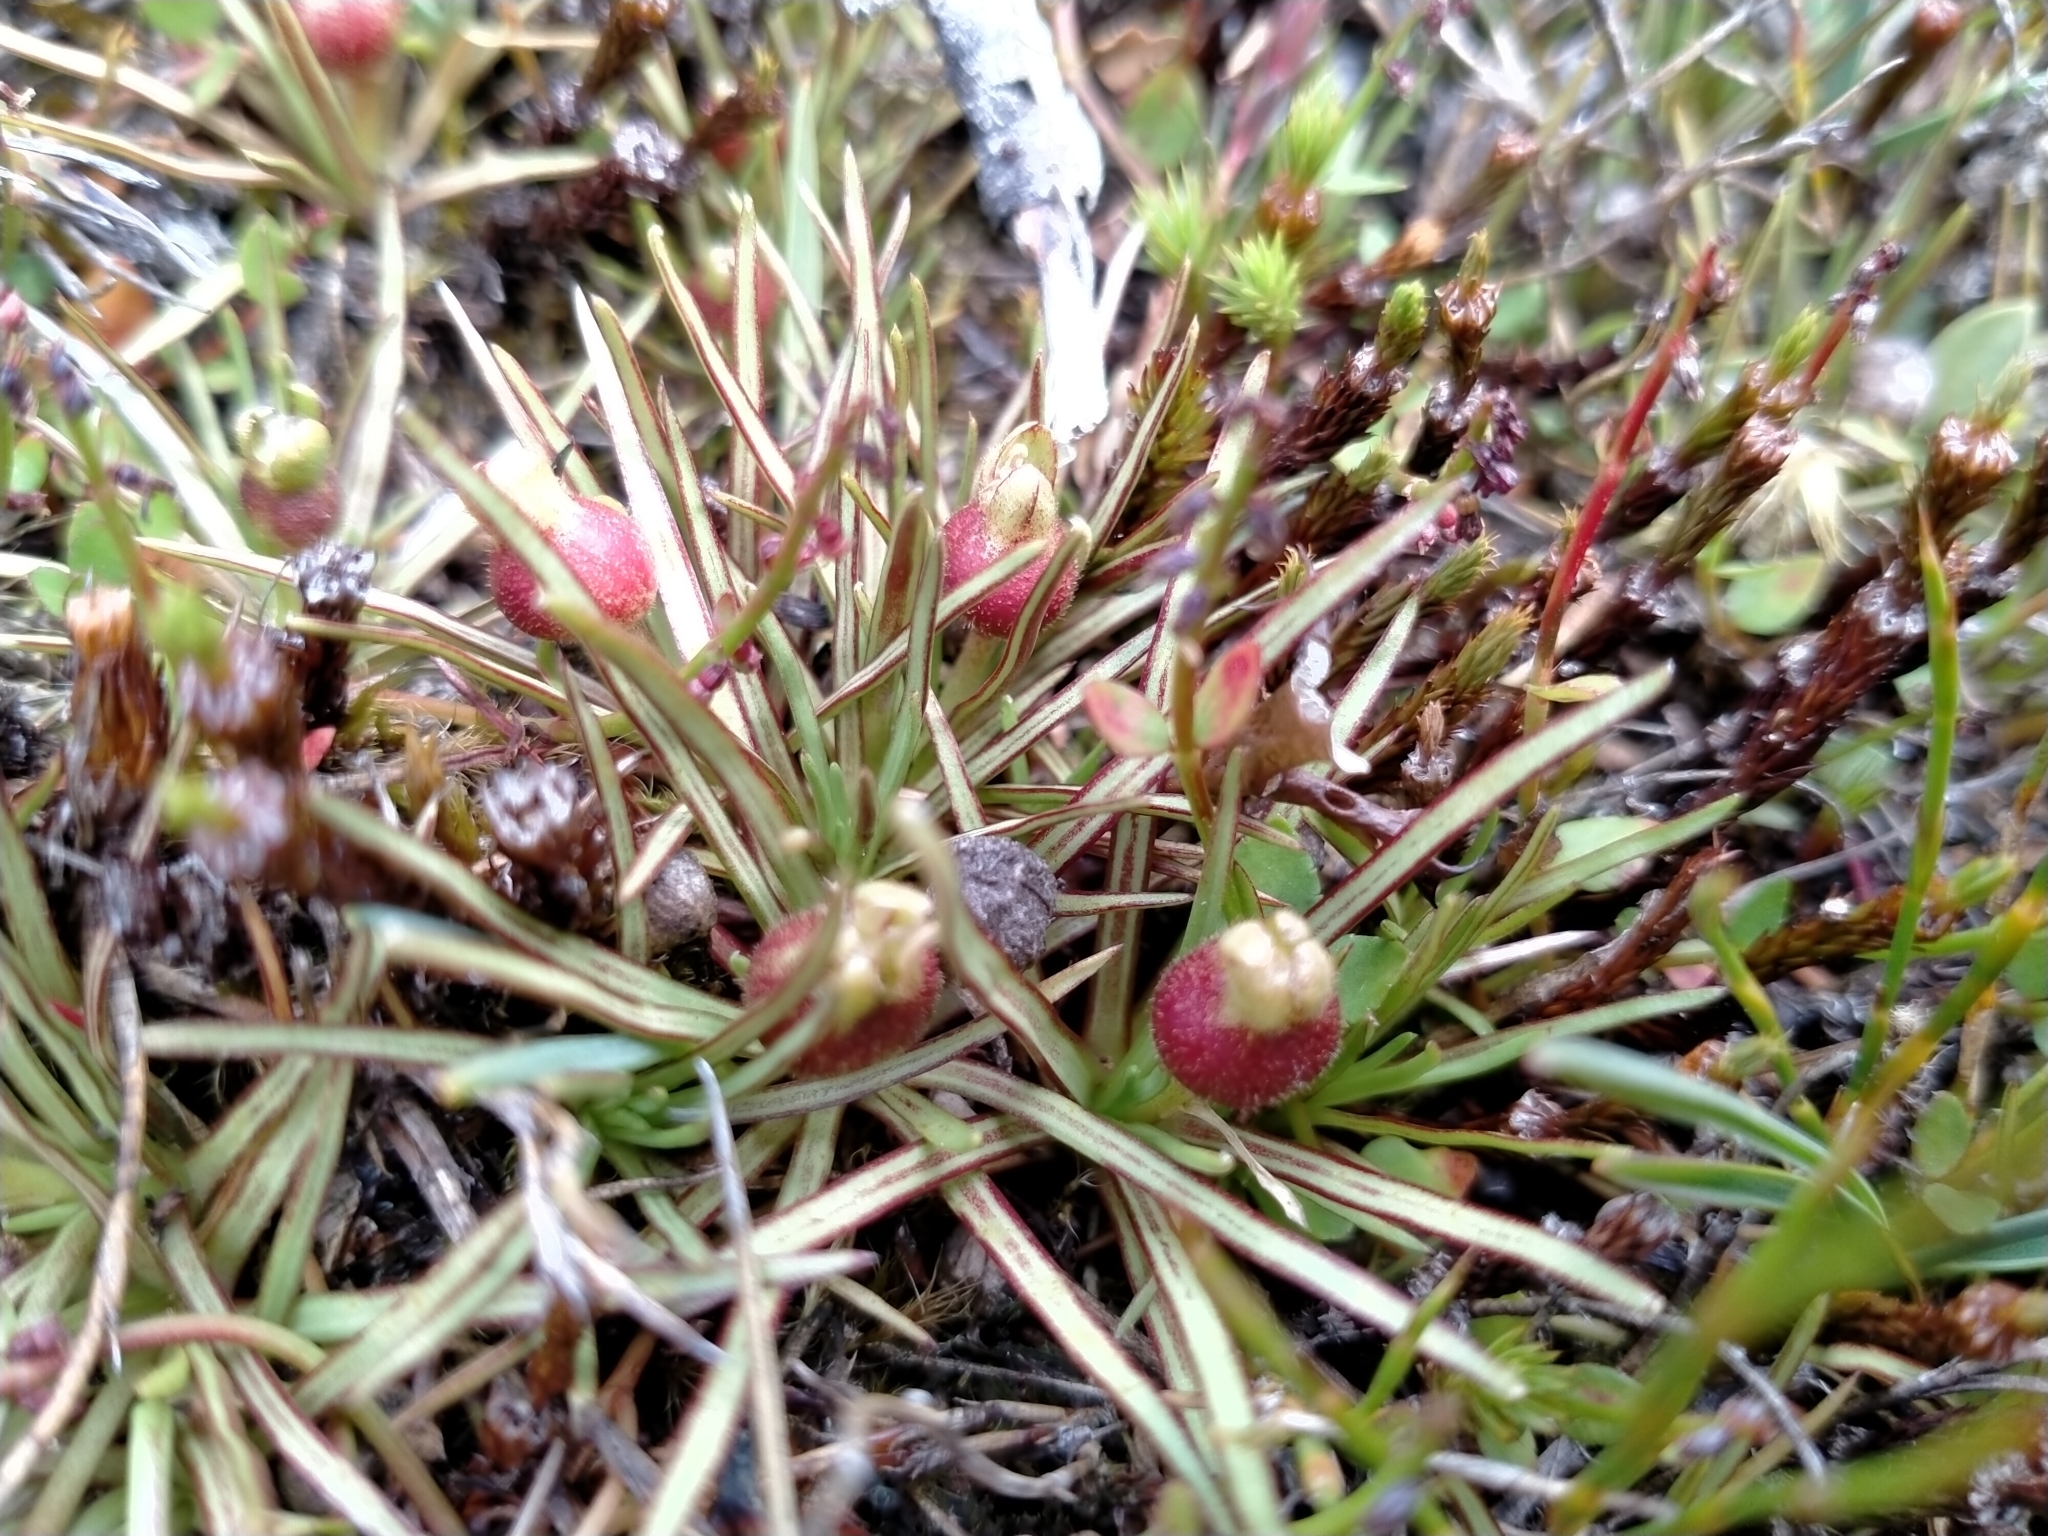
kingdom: Plantae
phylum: Tracheophyta
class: Magnoliopsida
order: Asterales
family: Stylidiaceae
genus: Oreostylidium
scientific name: Oreostylidium subulatum
